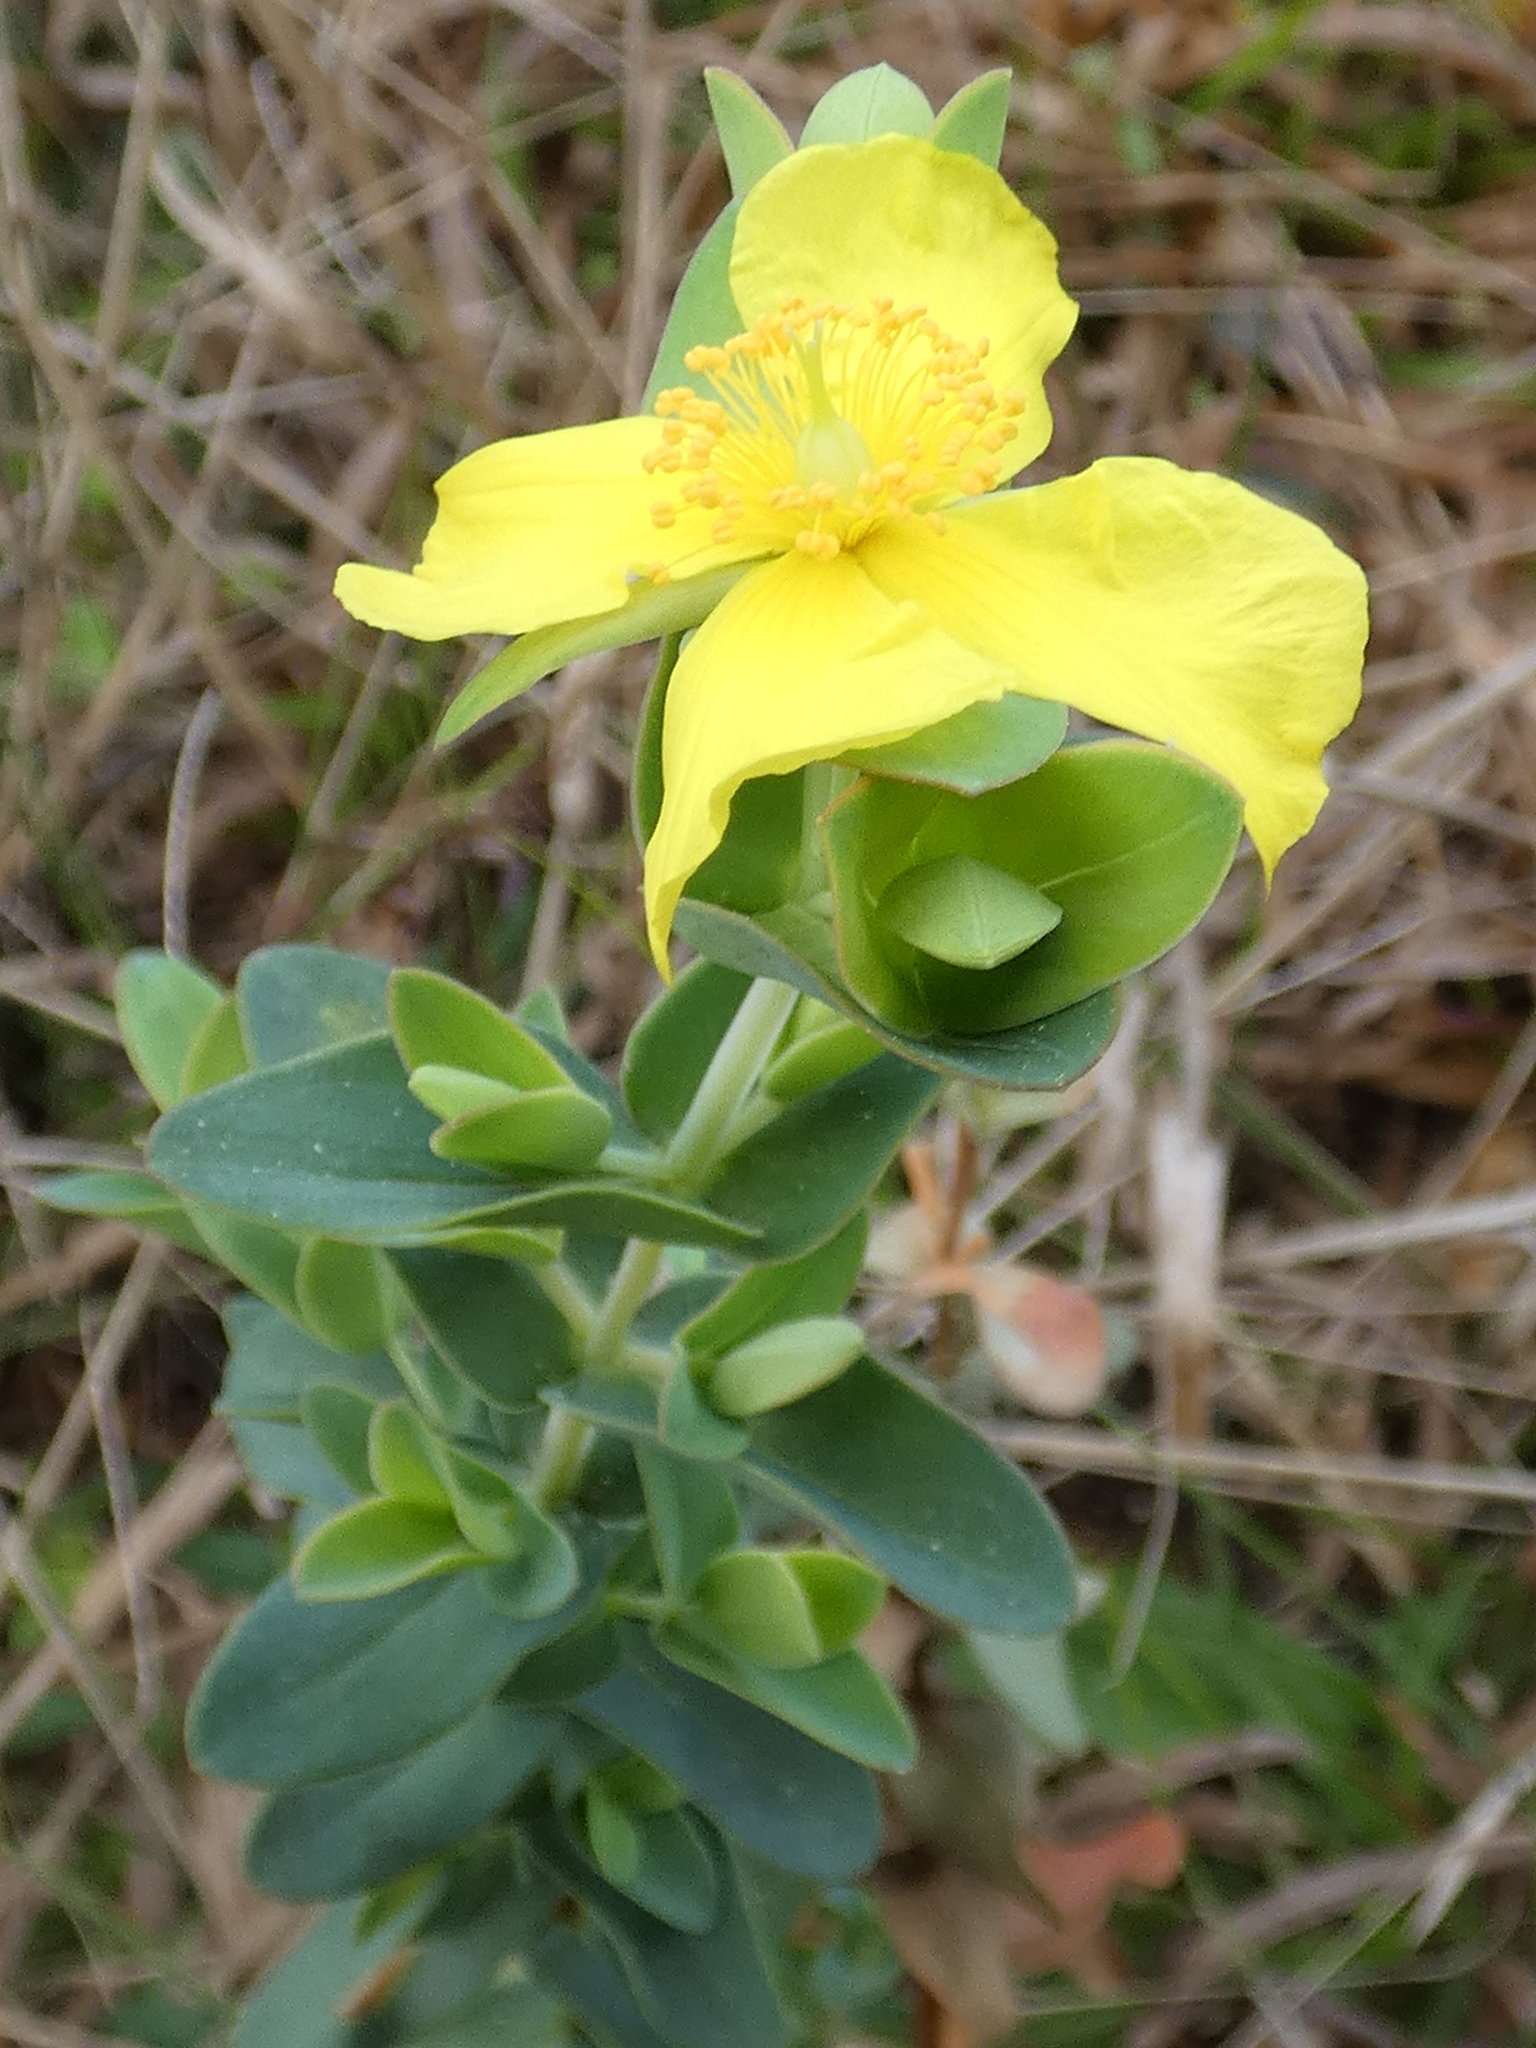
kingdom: Plantae
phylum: Tracheophyta
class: Magnoliopsida
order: Malpighiales
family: Hypericaceae
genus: Hypericum
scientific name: Hypericum tetrapetalum
